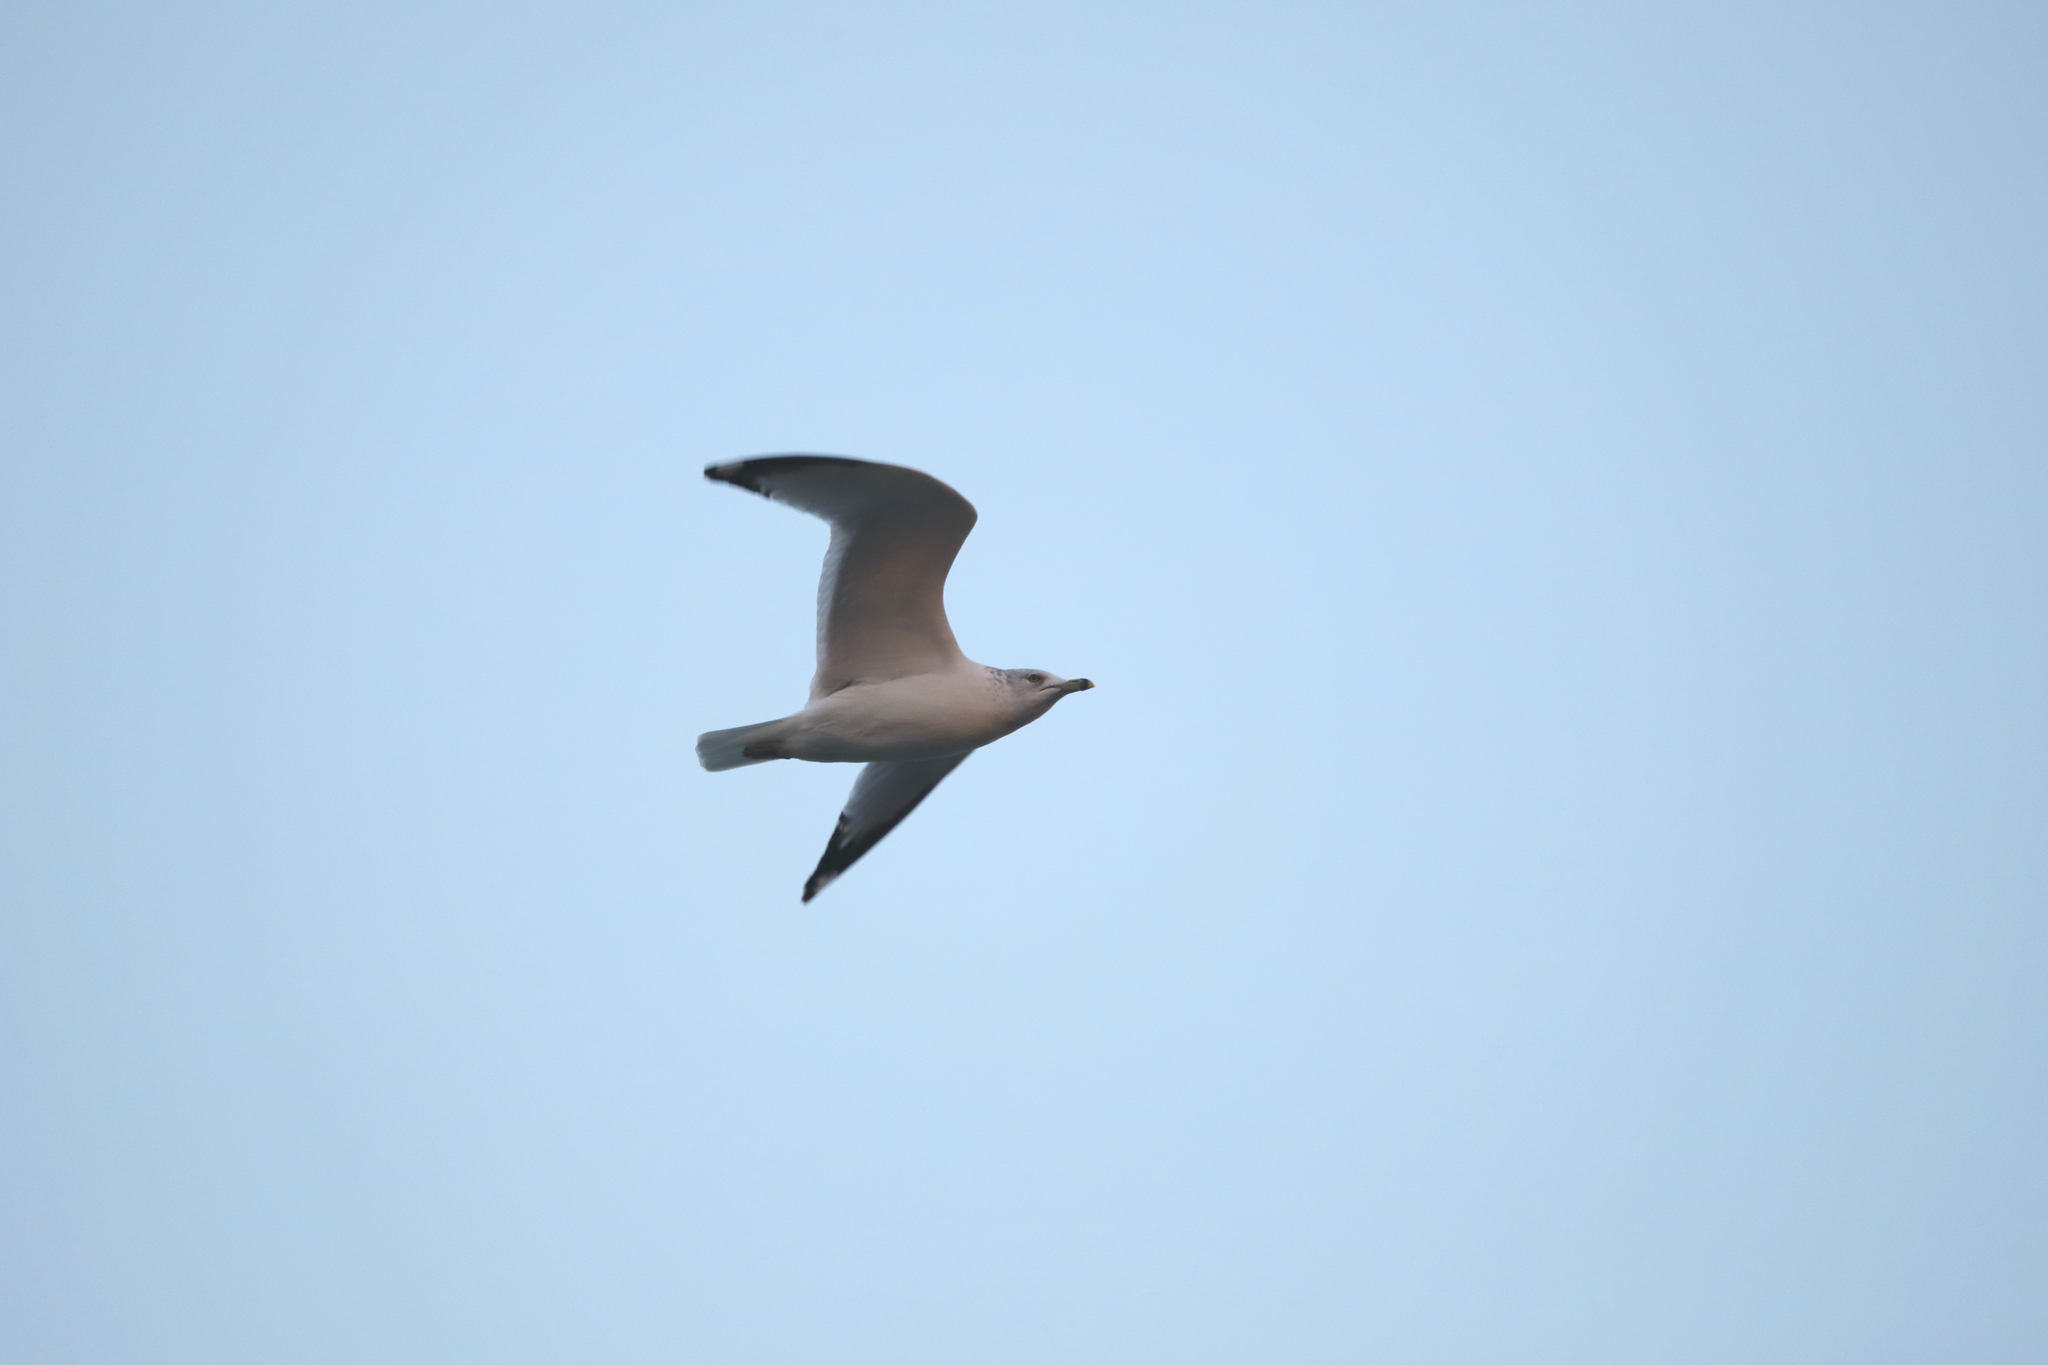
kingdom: Animalia
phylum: Chordata
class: Aves
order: Charadriiformes
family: Laridae
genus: Larus
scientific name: Larus delawarensis
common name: Ring-billed gull
